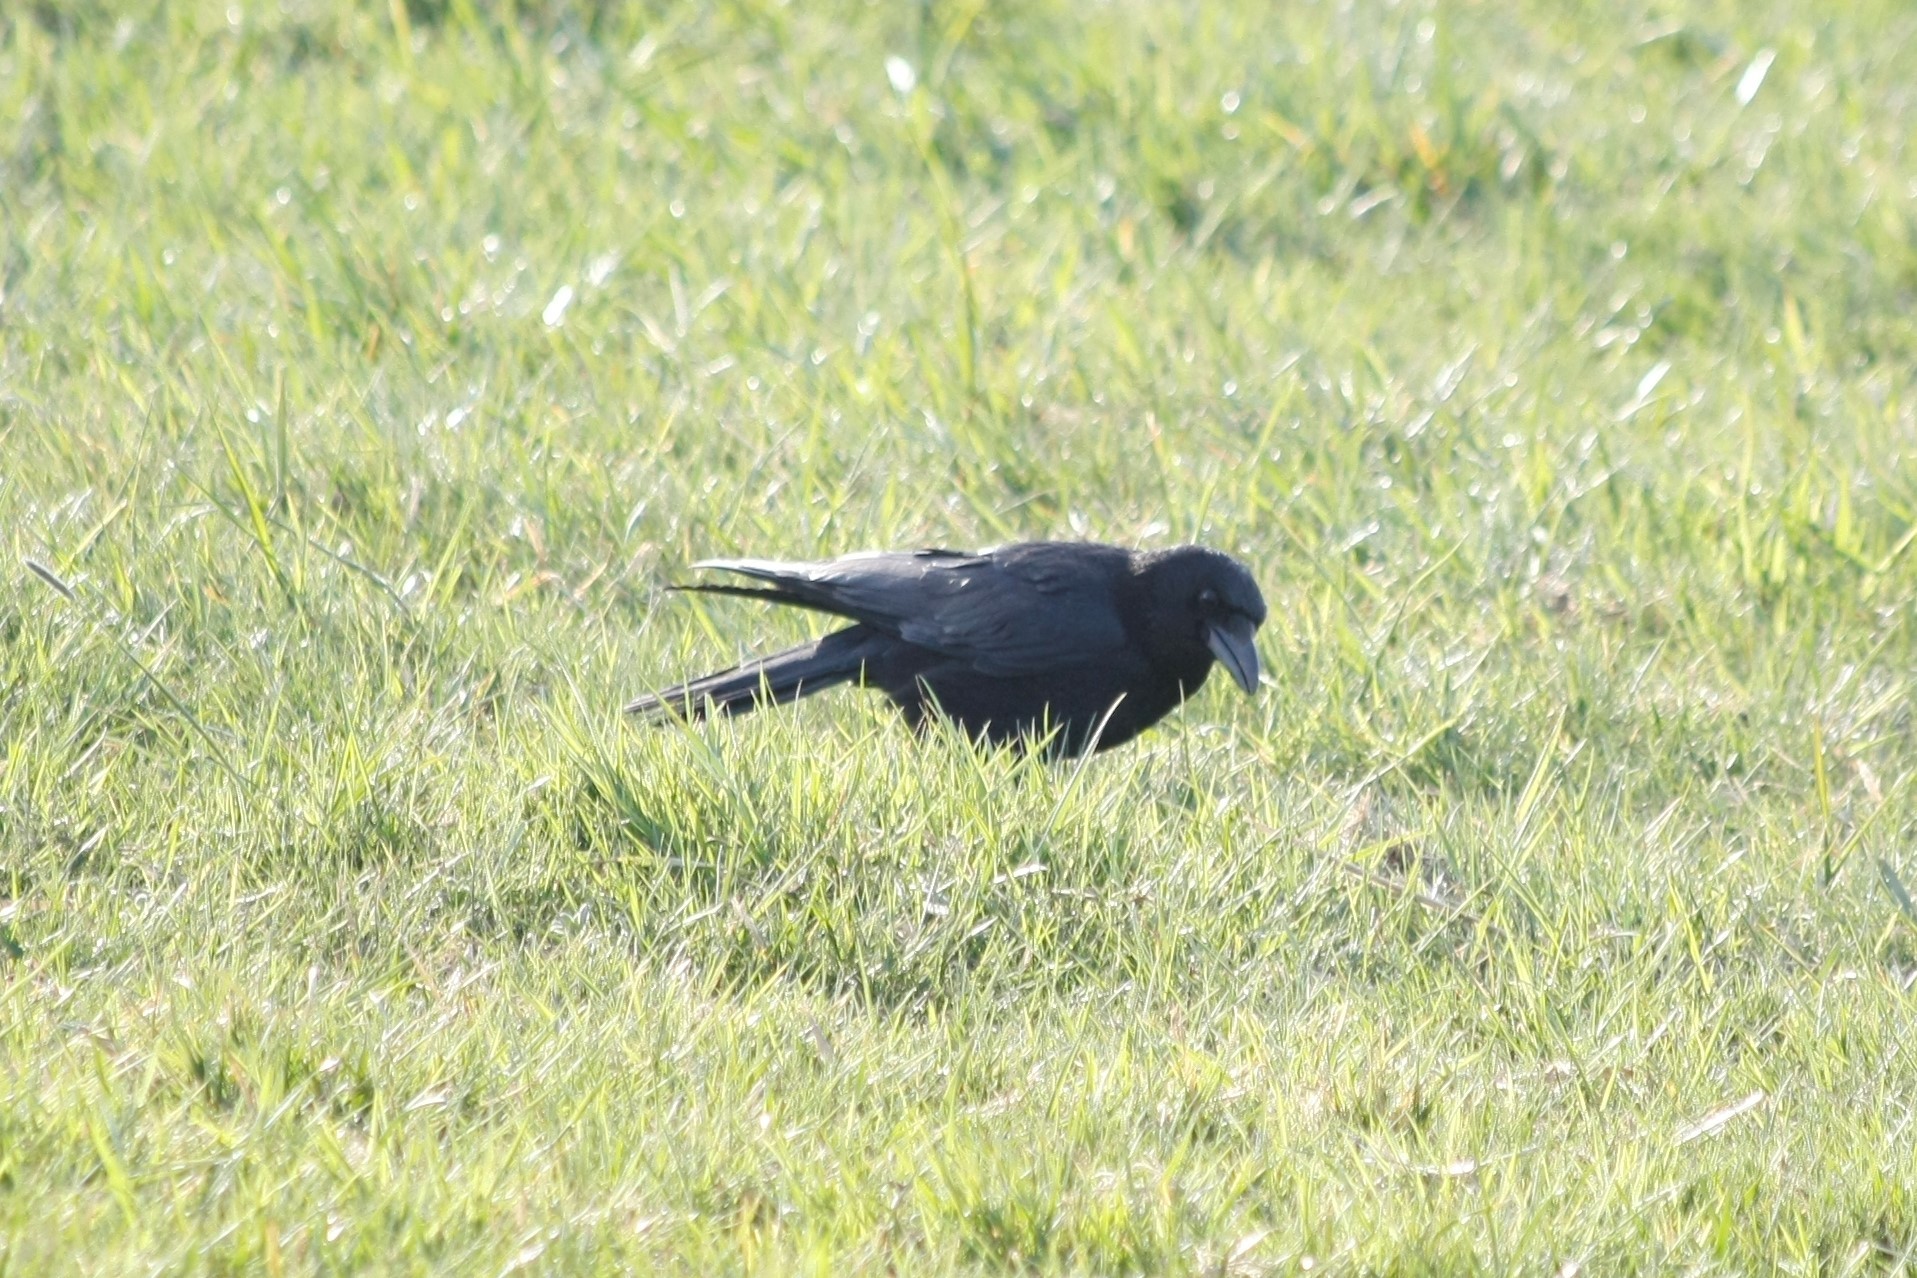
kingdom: Animalia
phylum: Chordata
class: Aves
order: Passeriformes
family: Corvidae
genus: Corvus
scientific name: Corvus corone
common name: Carrion crow
